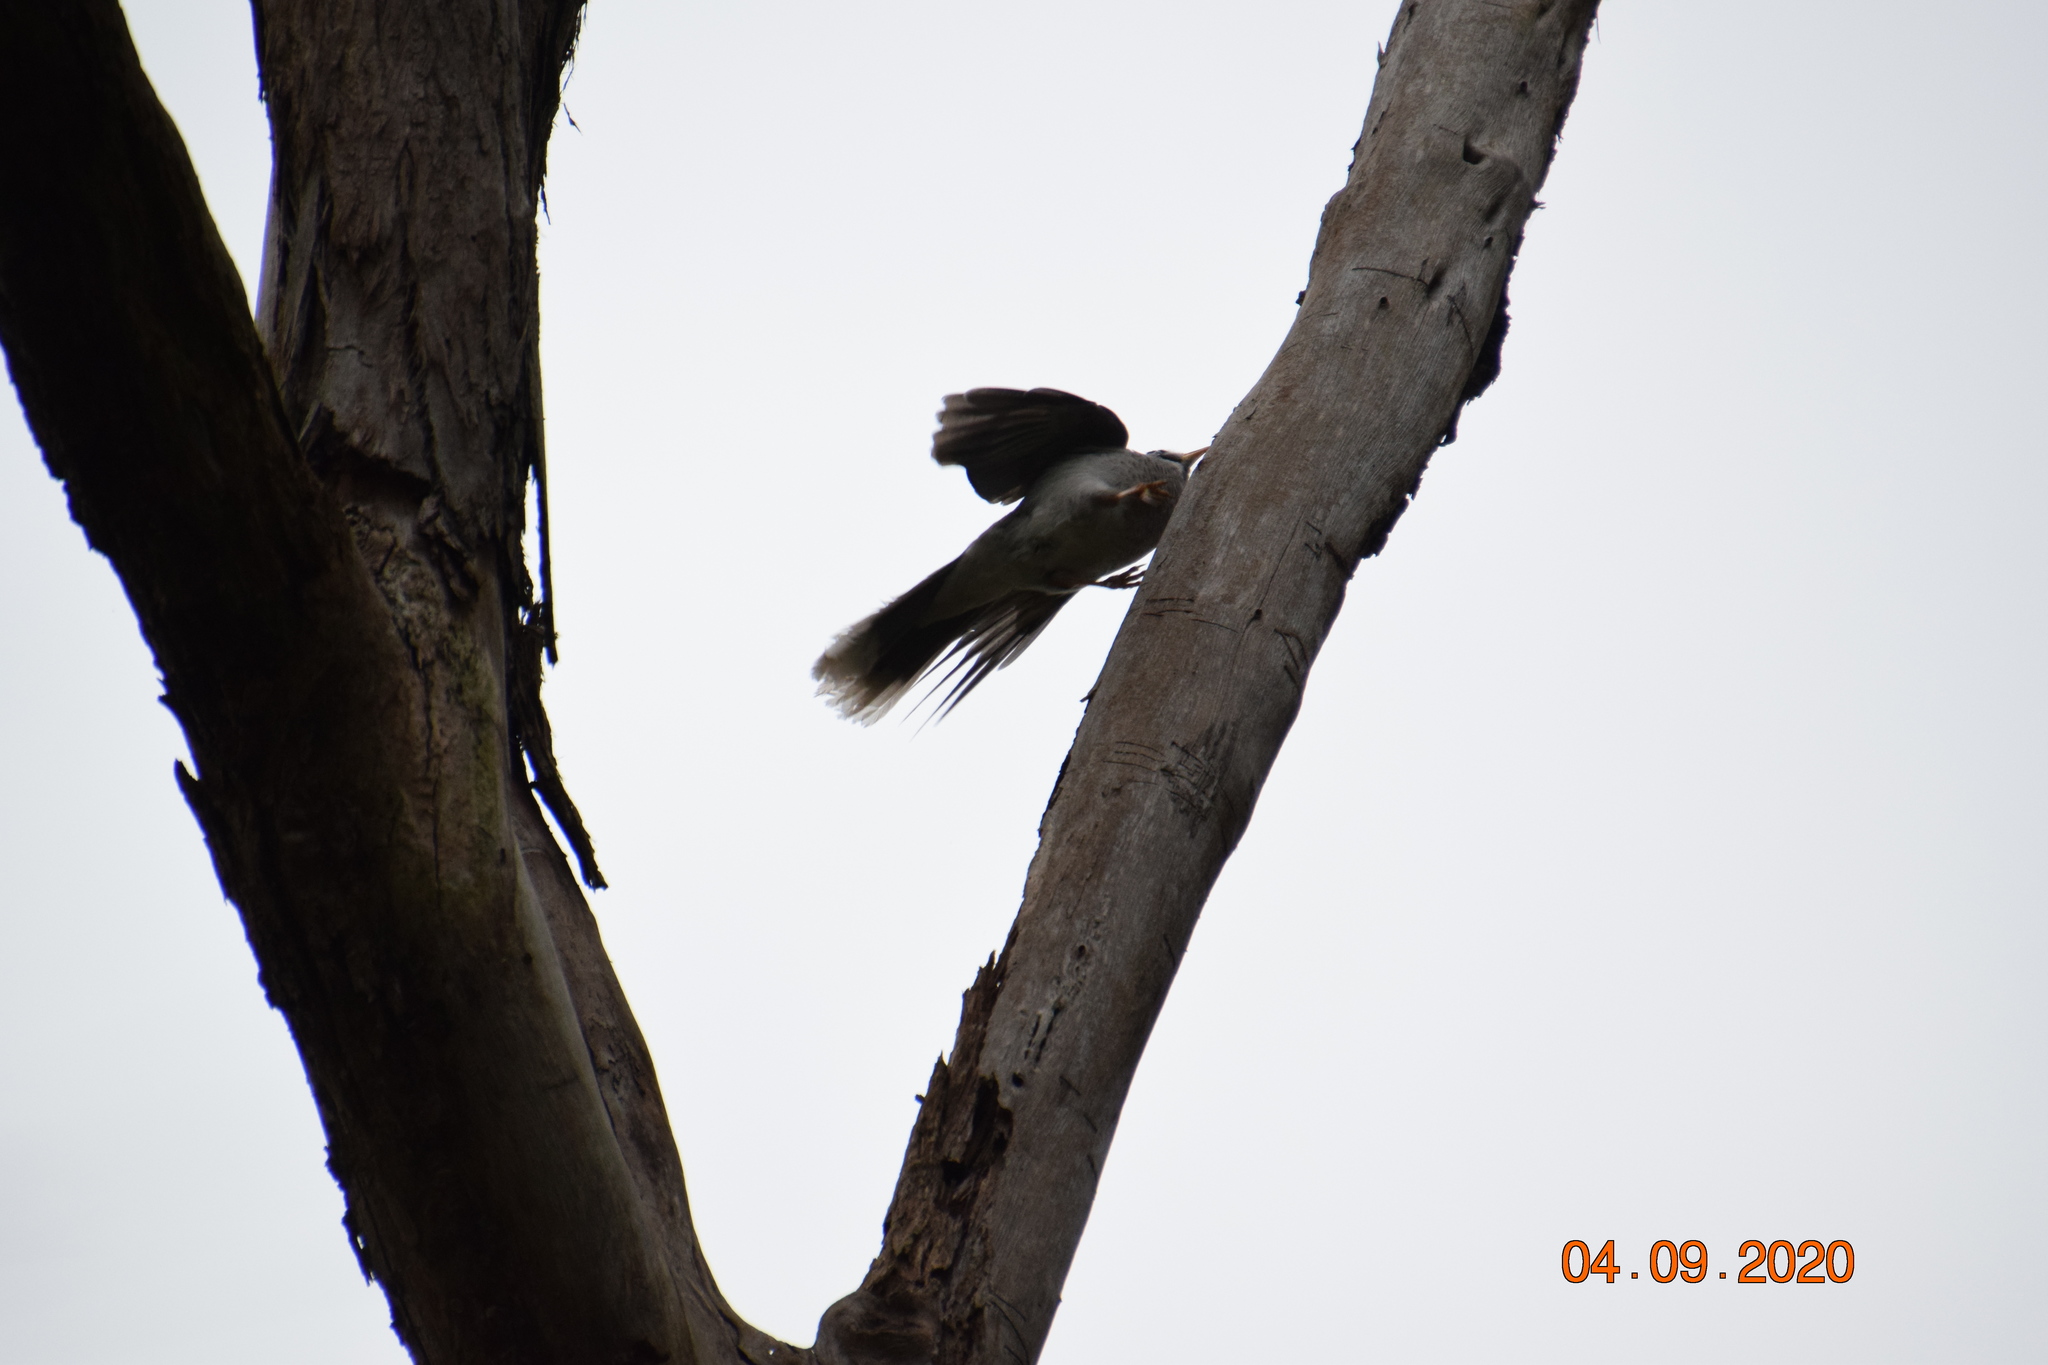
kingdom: Animalia
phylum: Chordata
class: Aves
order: Passeriformes
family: Meliphagidae
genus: Manorina
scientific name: Manorina melanocephala
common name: Noisy miner
